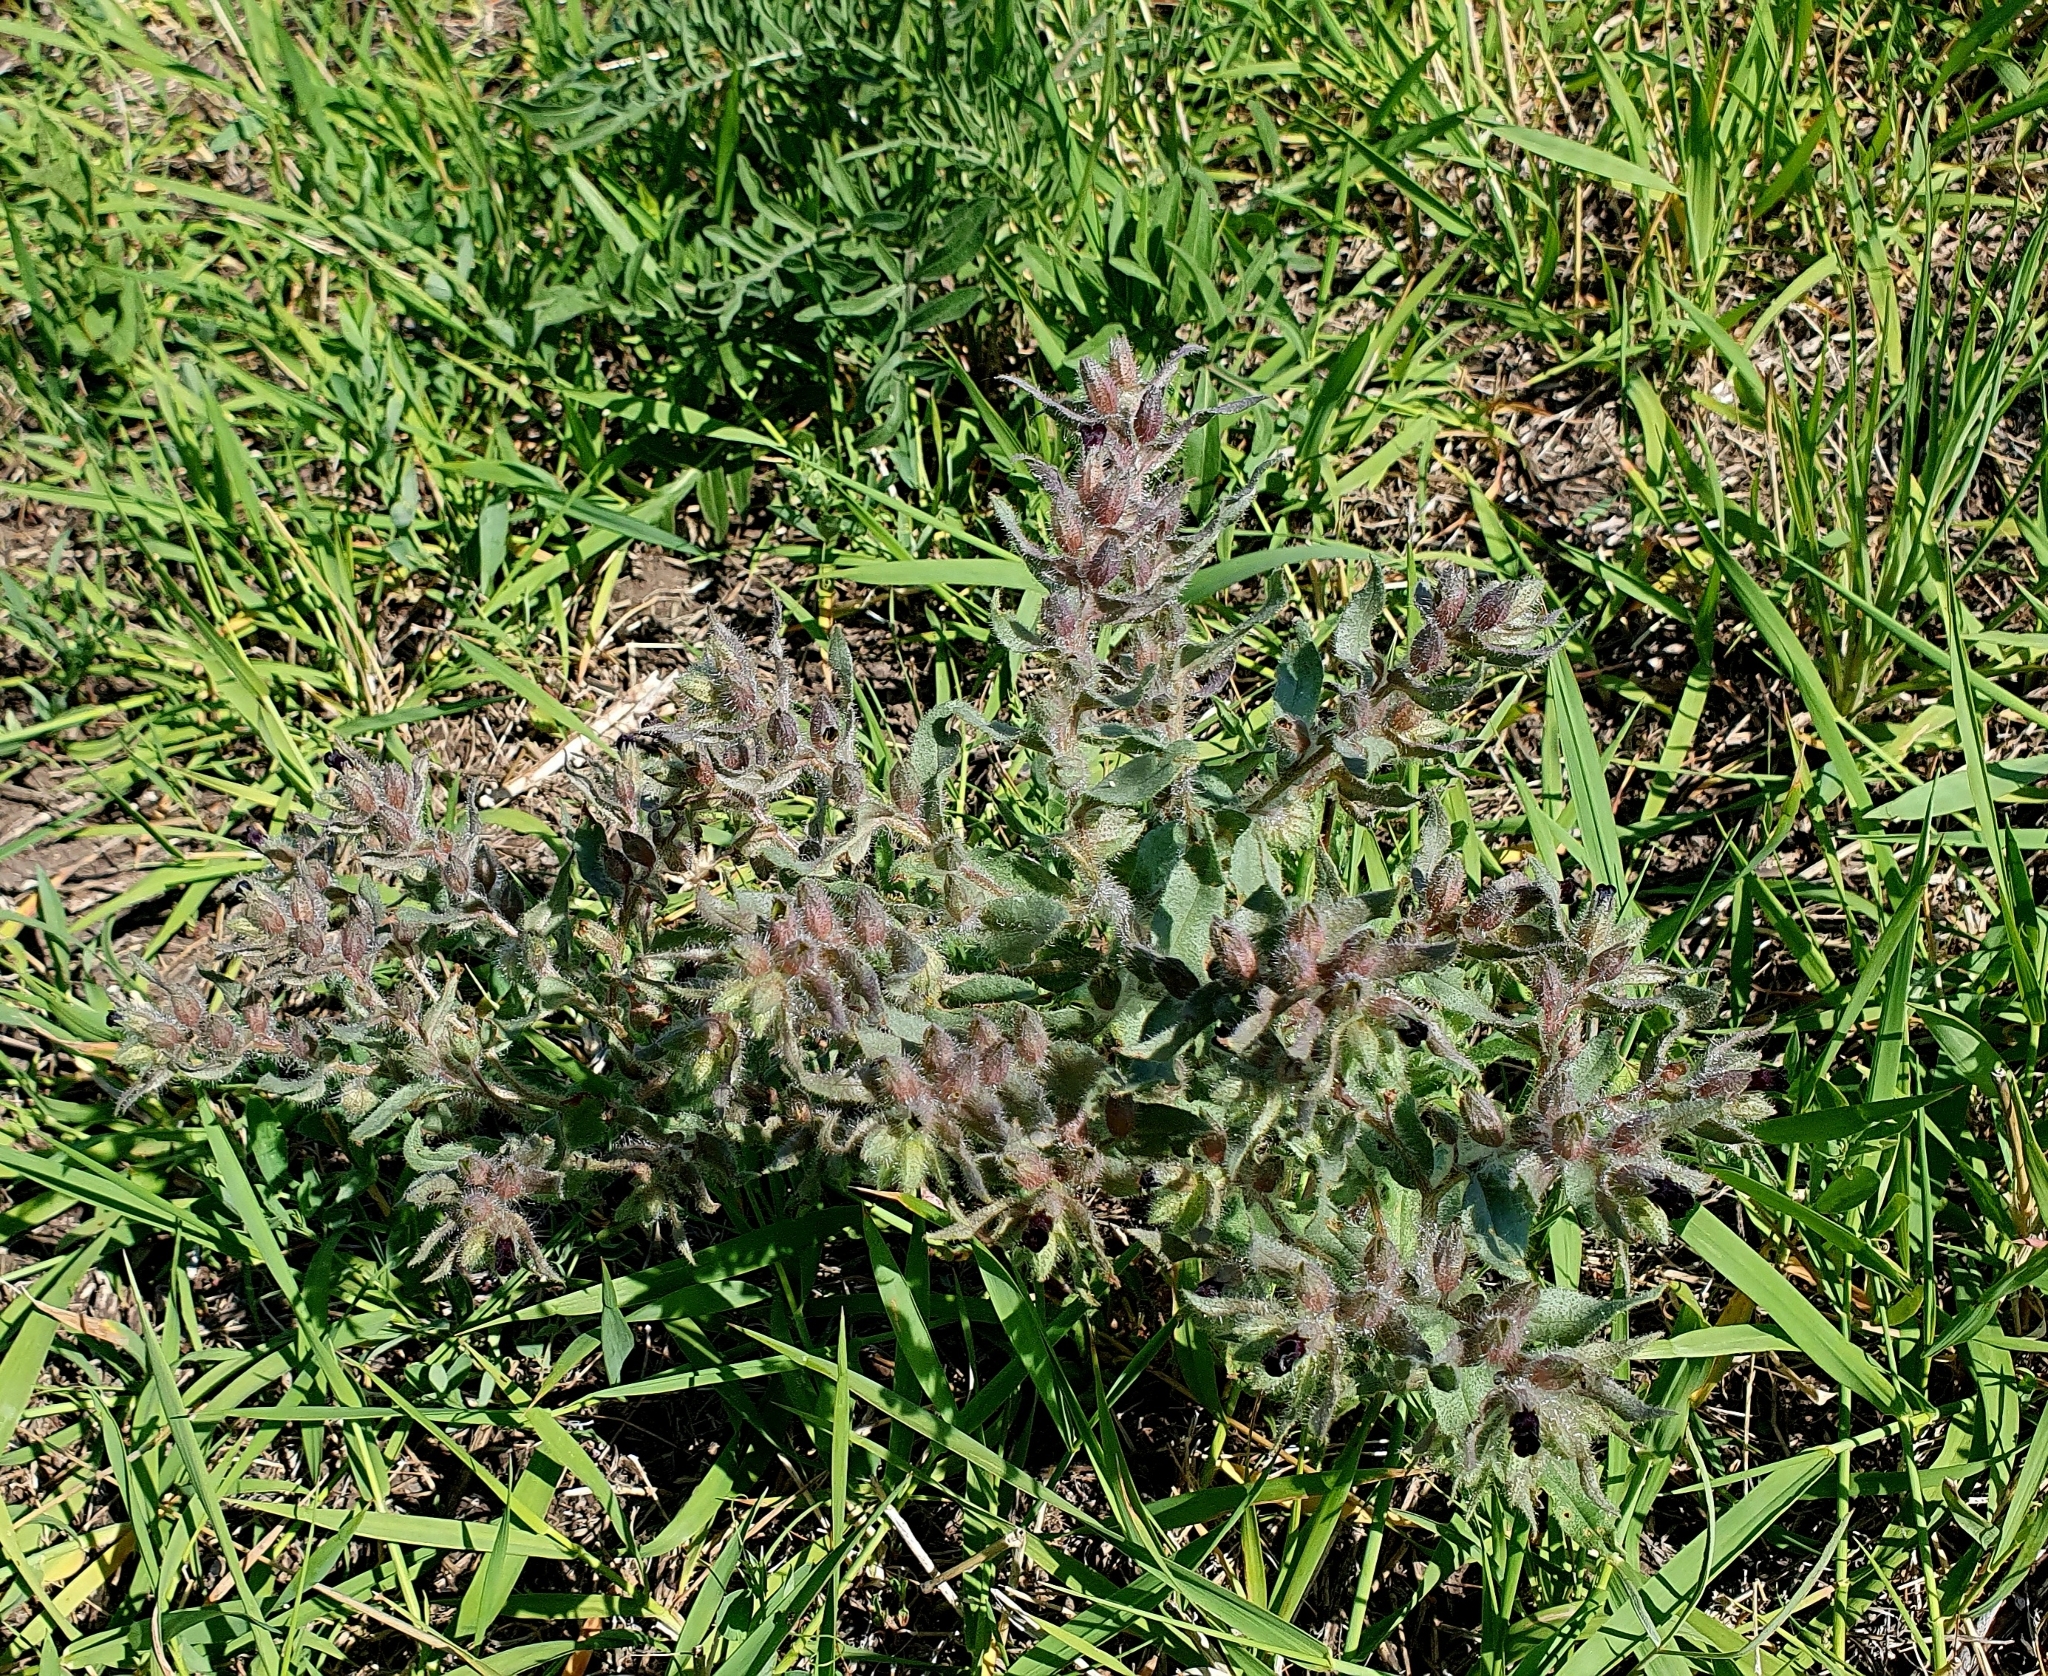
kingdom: Plantae
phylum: Tracheophyta
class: Magnoliopsida
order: Boraginales
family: Boraginaceae
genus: Nonea
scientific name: Nonea pulla
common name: Brown nonea
